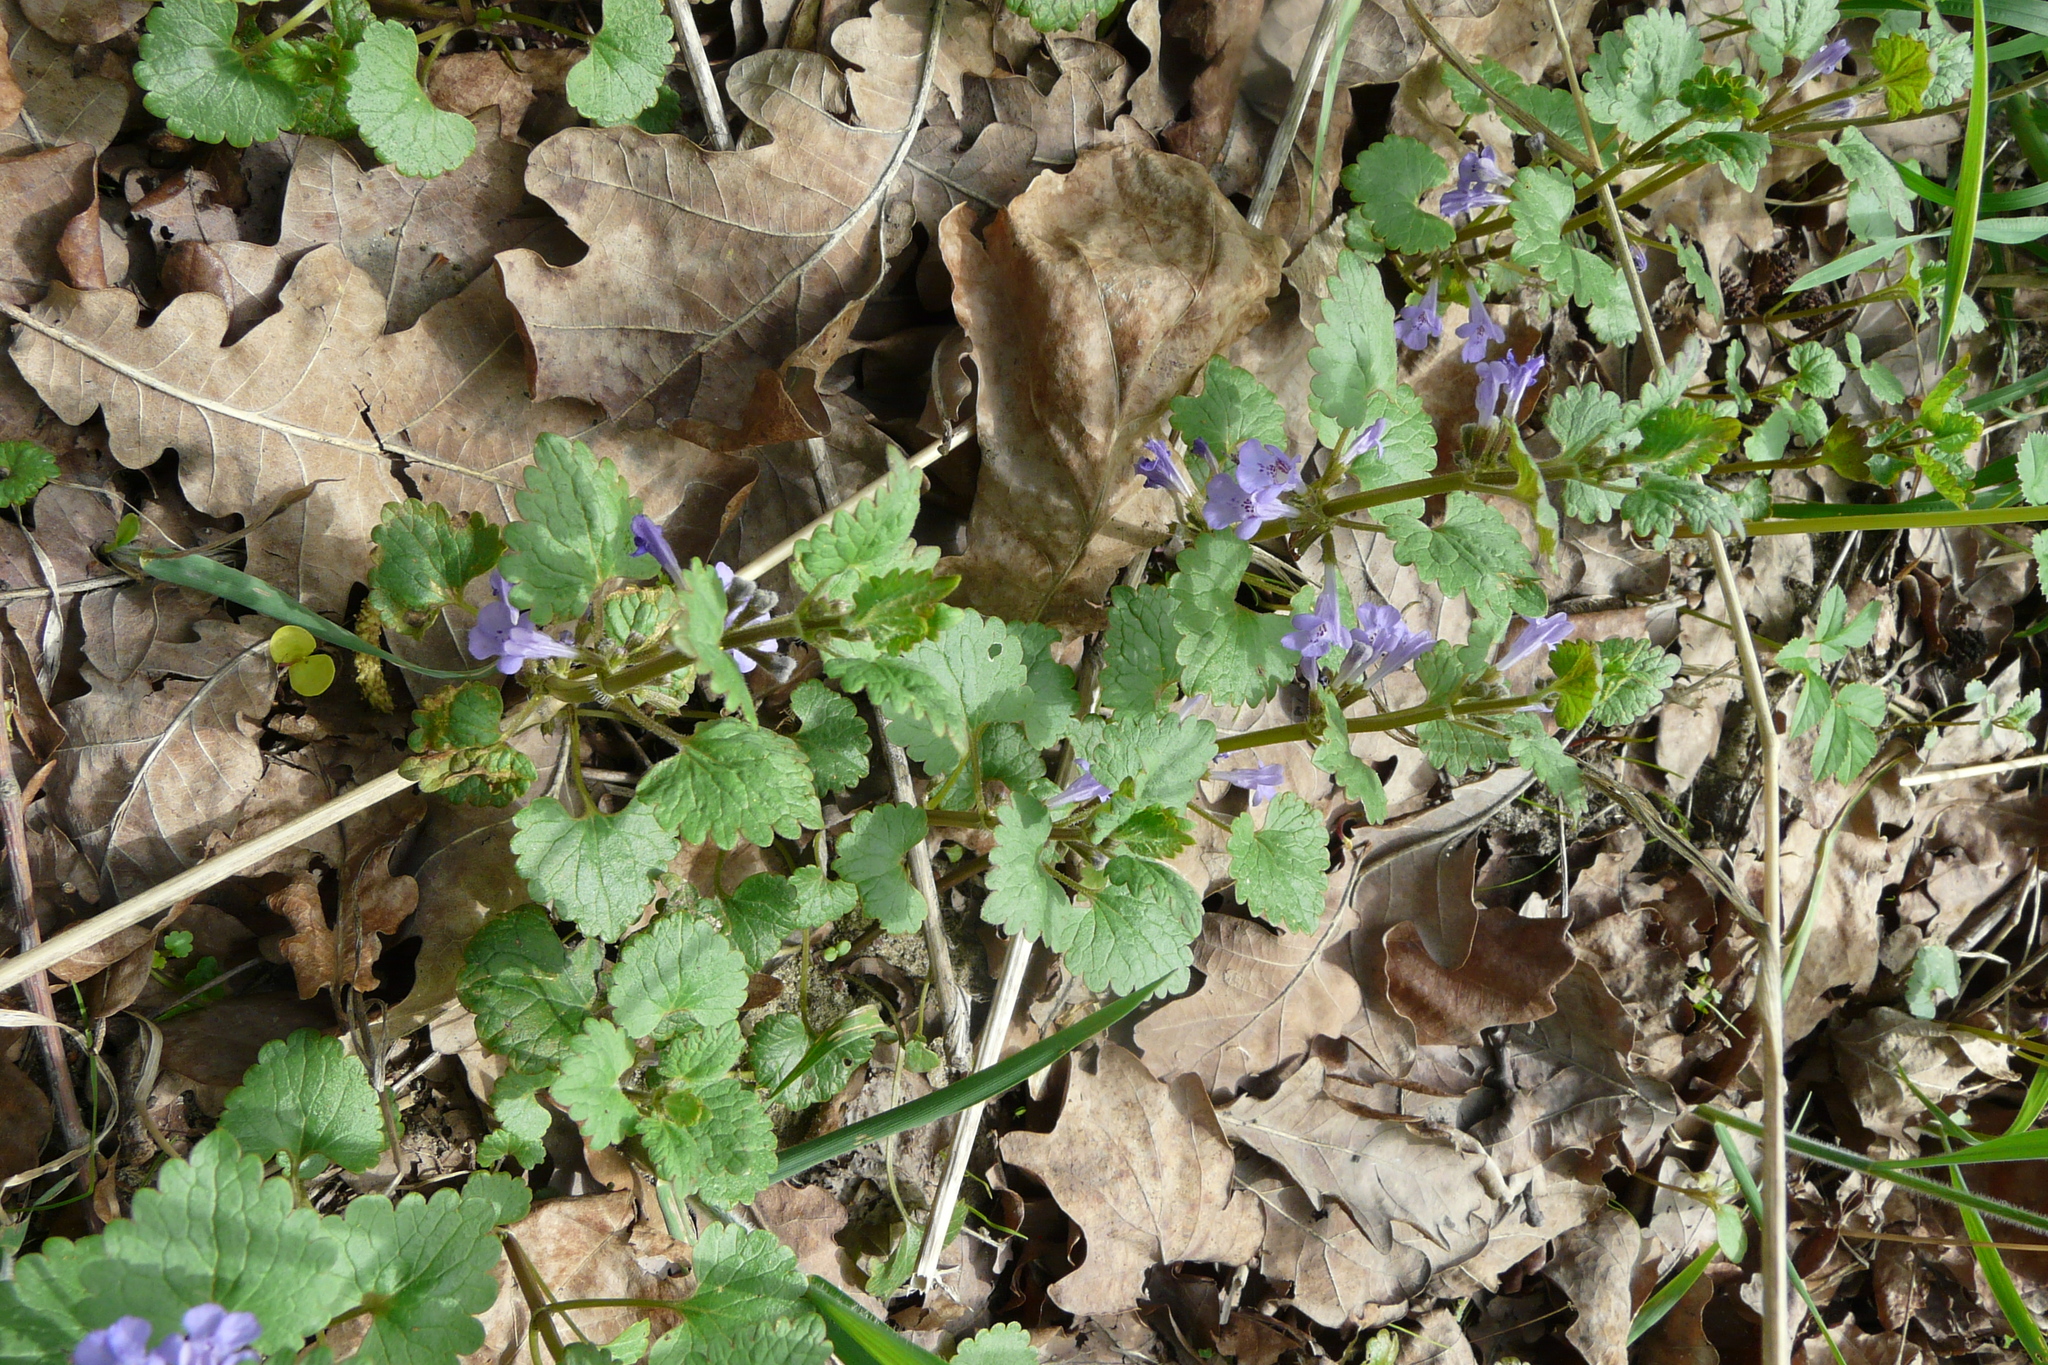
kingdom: Plantae
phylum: Tracheophyta
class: Magnoliopsida
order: Lamiales
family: Lamiaceae
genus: Glechoma
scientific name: Glechoma hederacea
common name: Ground ivy
